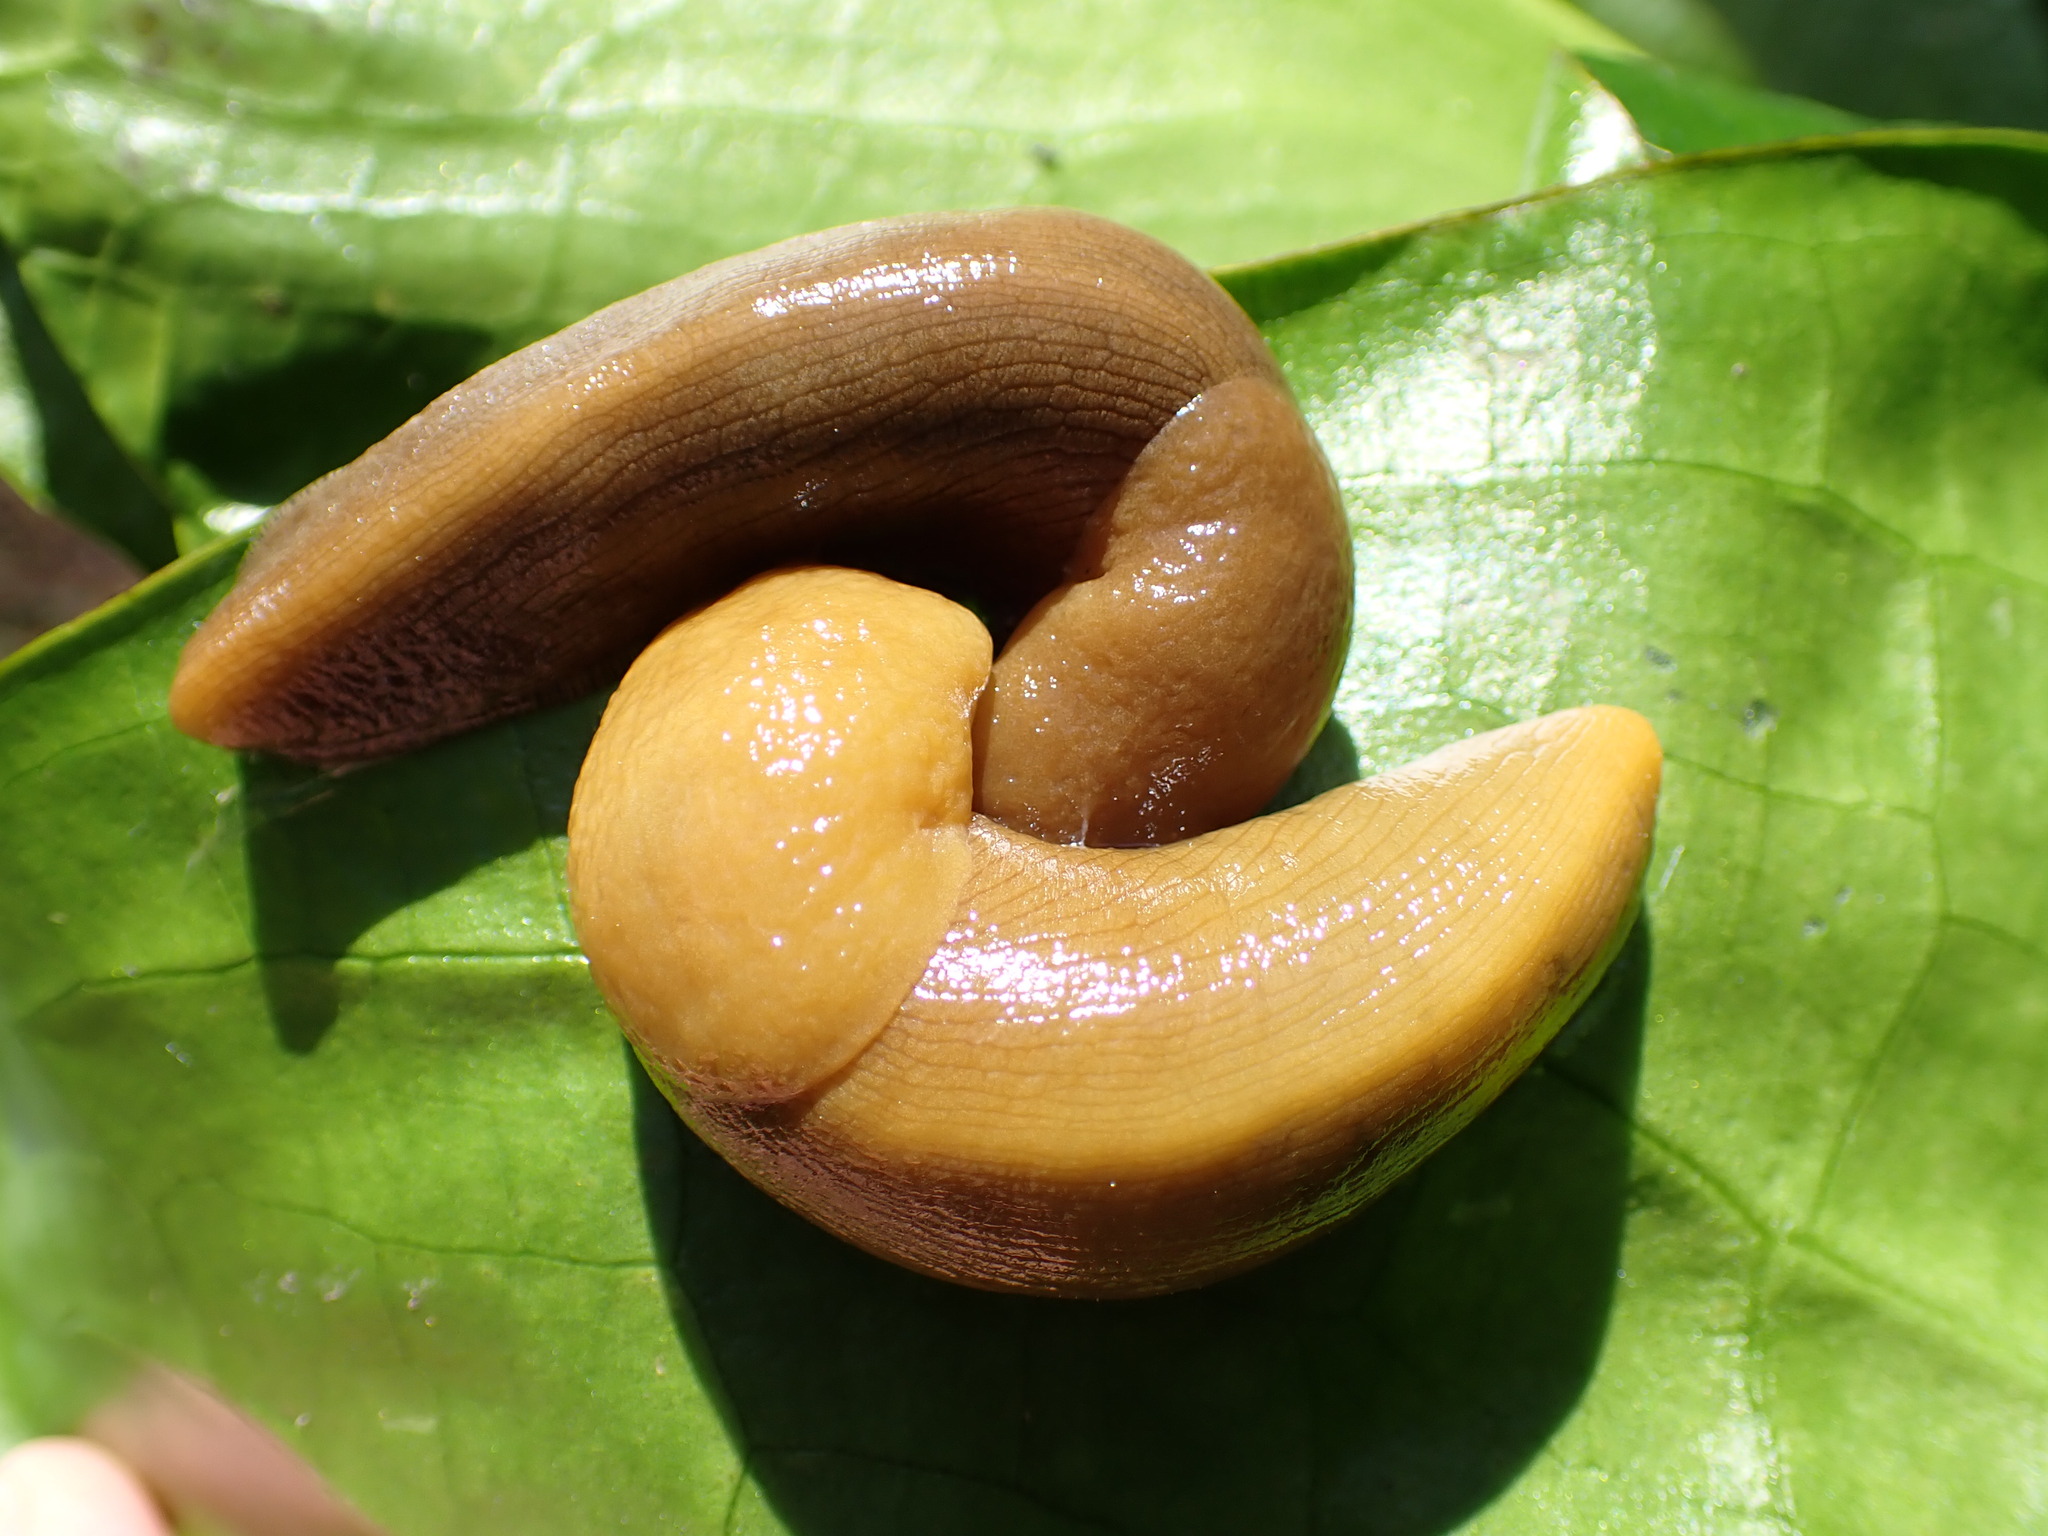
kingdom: Animalia
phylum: Mollusca
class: Gastropoda
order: Stylommatophora
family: Ariolimacidae
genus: Ariolimax
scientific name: Ariolimax buttoni
